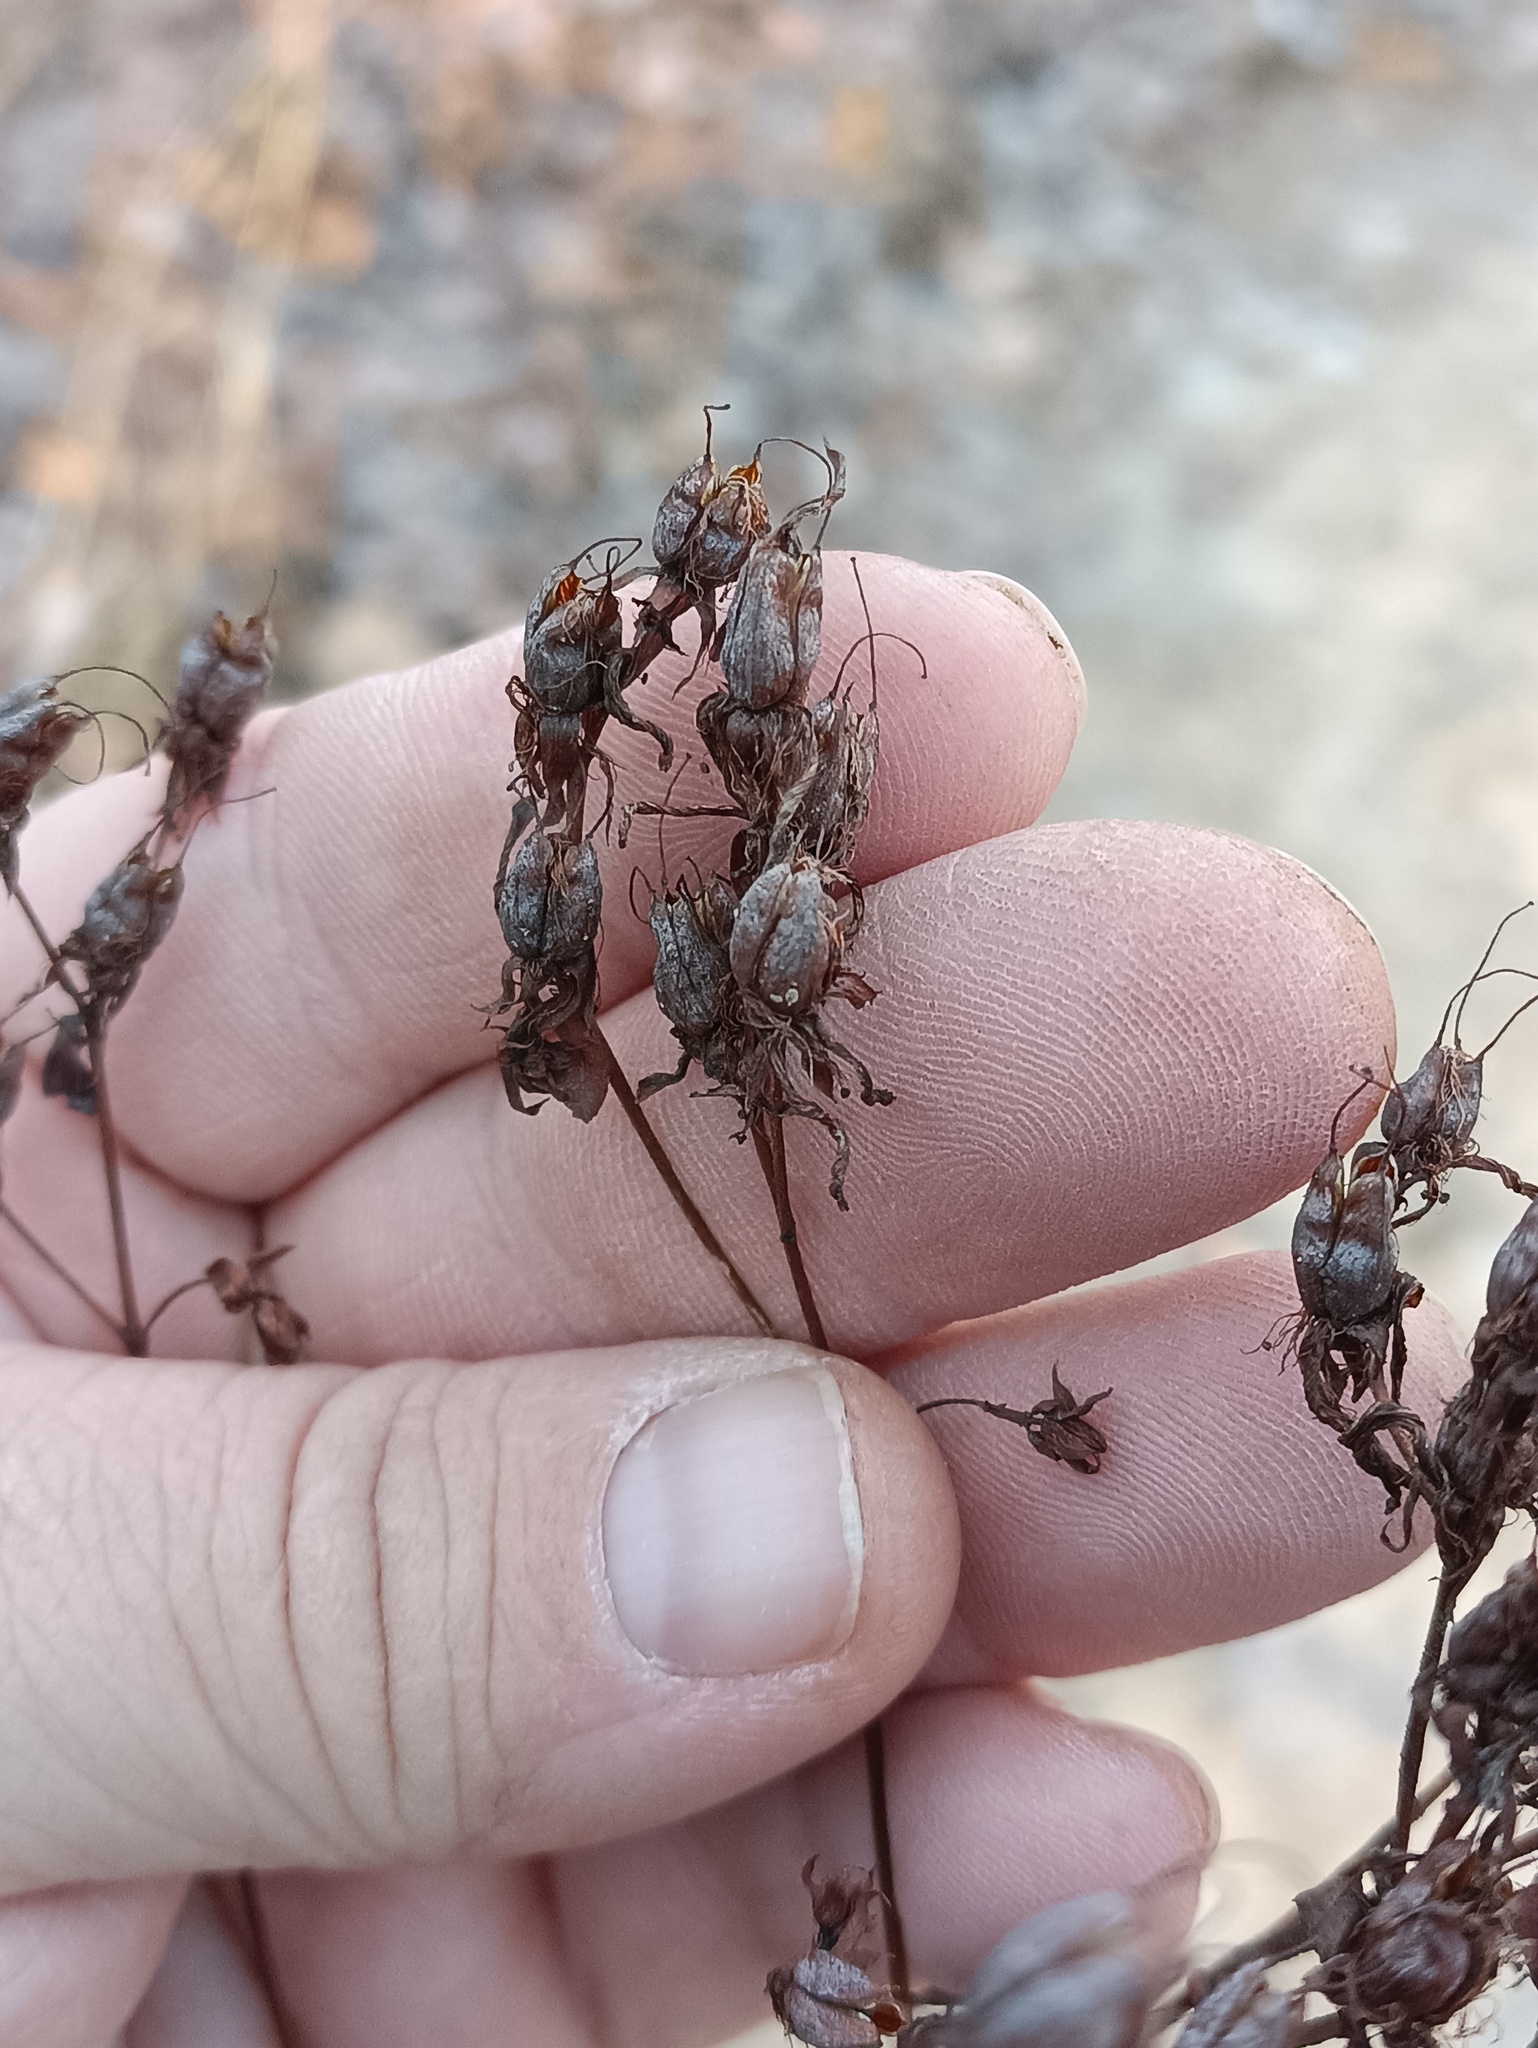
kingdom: Plantae
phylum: Tracheophyta
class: Magnoliopsida
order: Malpighiales
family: Hypericaceae
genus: Hypericum
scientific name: Hypericum perforatum
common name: Common st. johnswort
